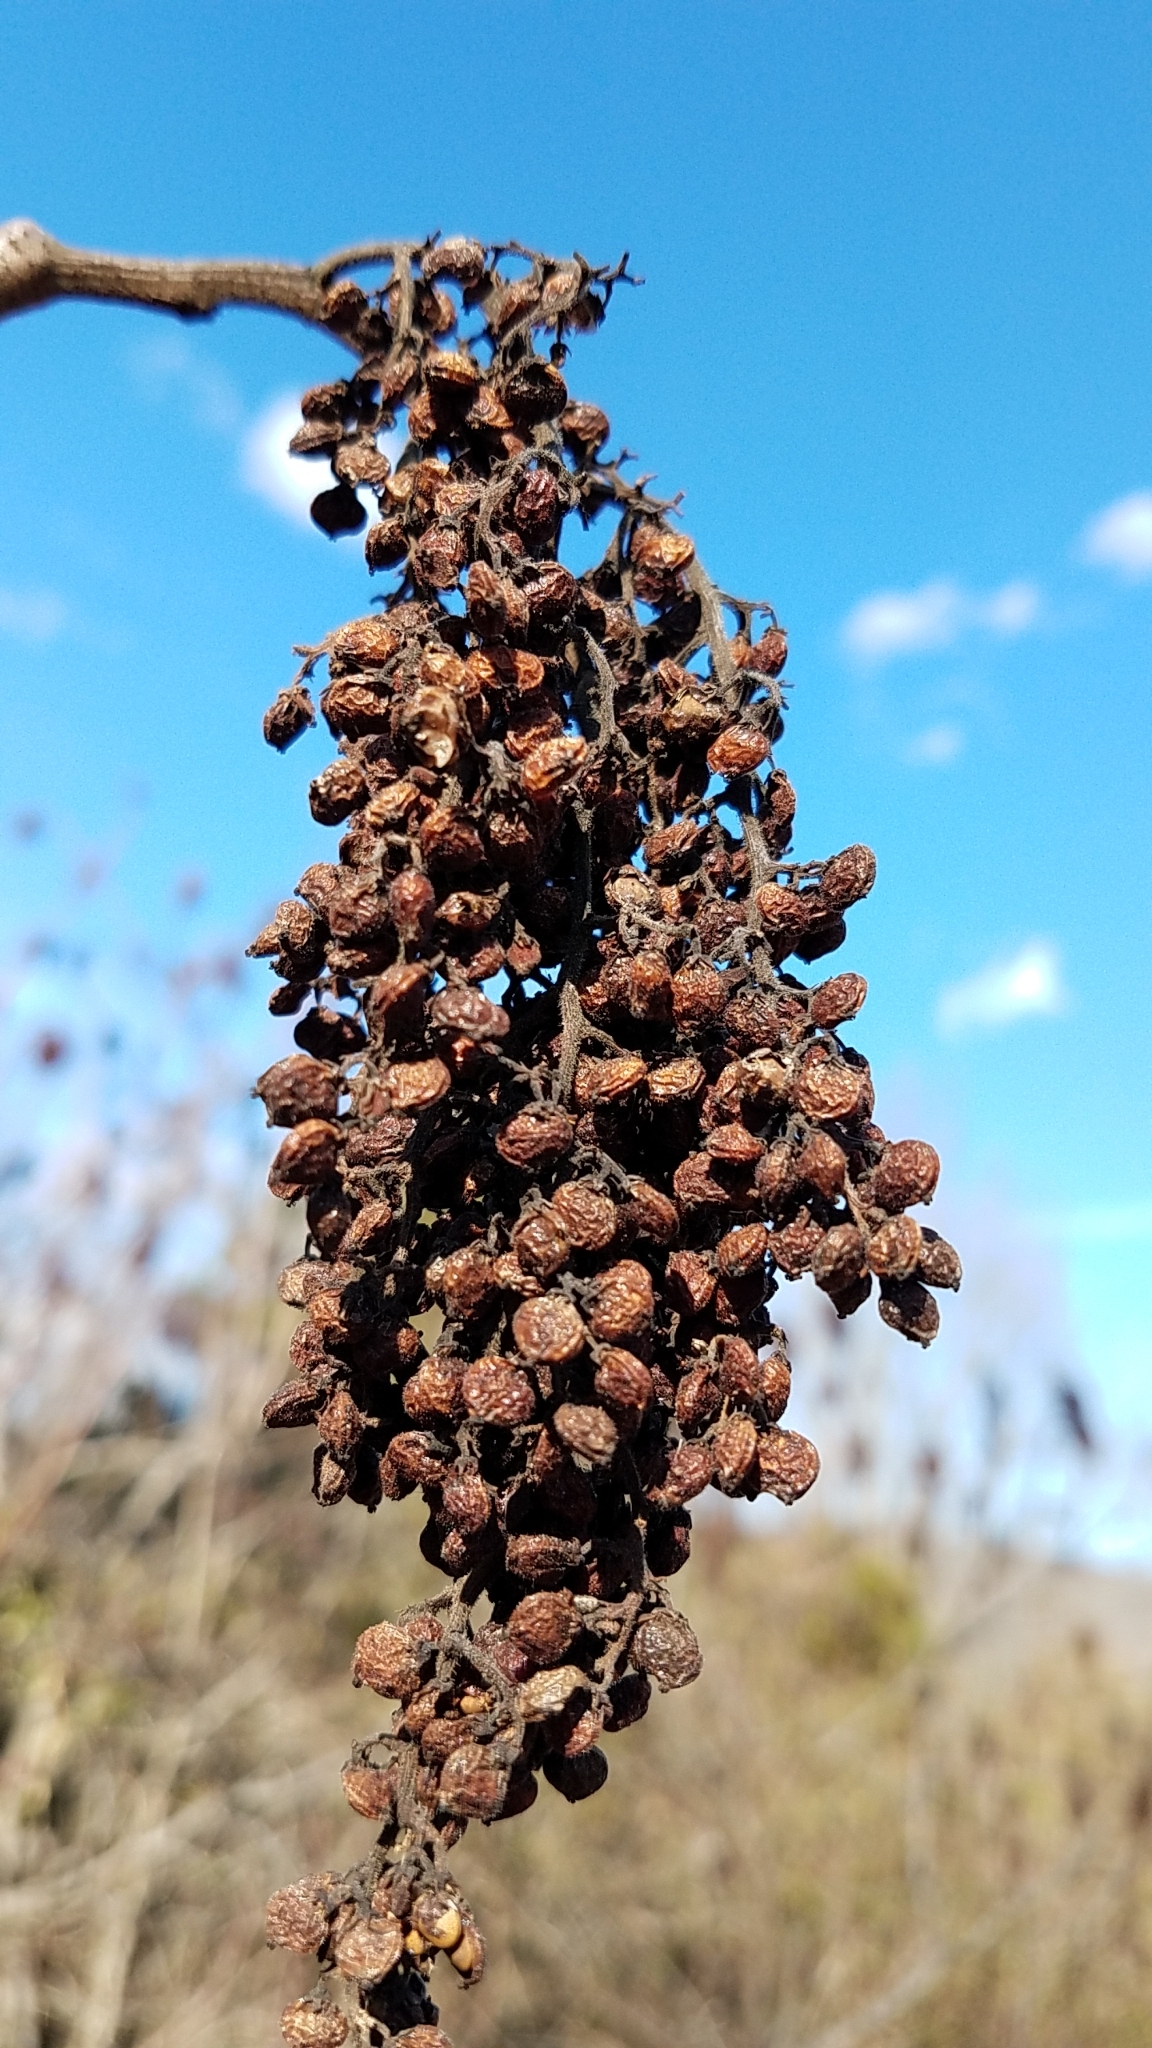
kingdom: Plantae
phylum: Tracheophyta
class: Magnoliopsida
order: Sapindales
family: Anacardiaceae
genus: Rhus
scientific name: Rhus glabra
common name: Scarlet sumac
